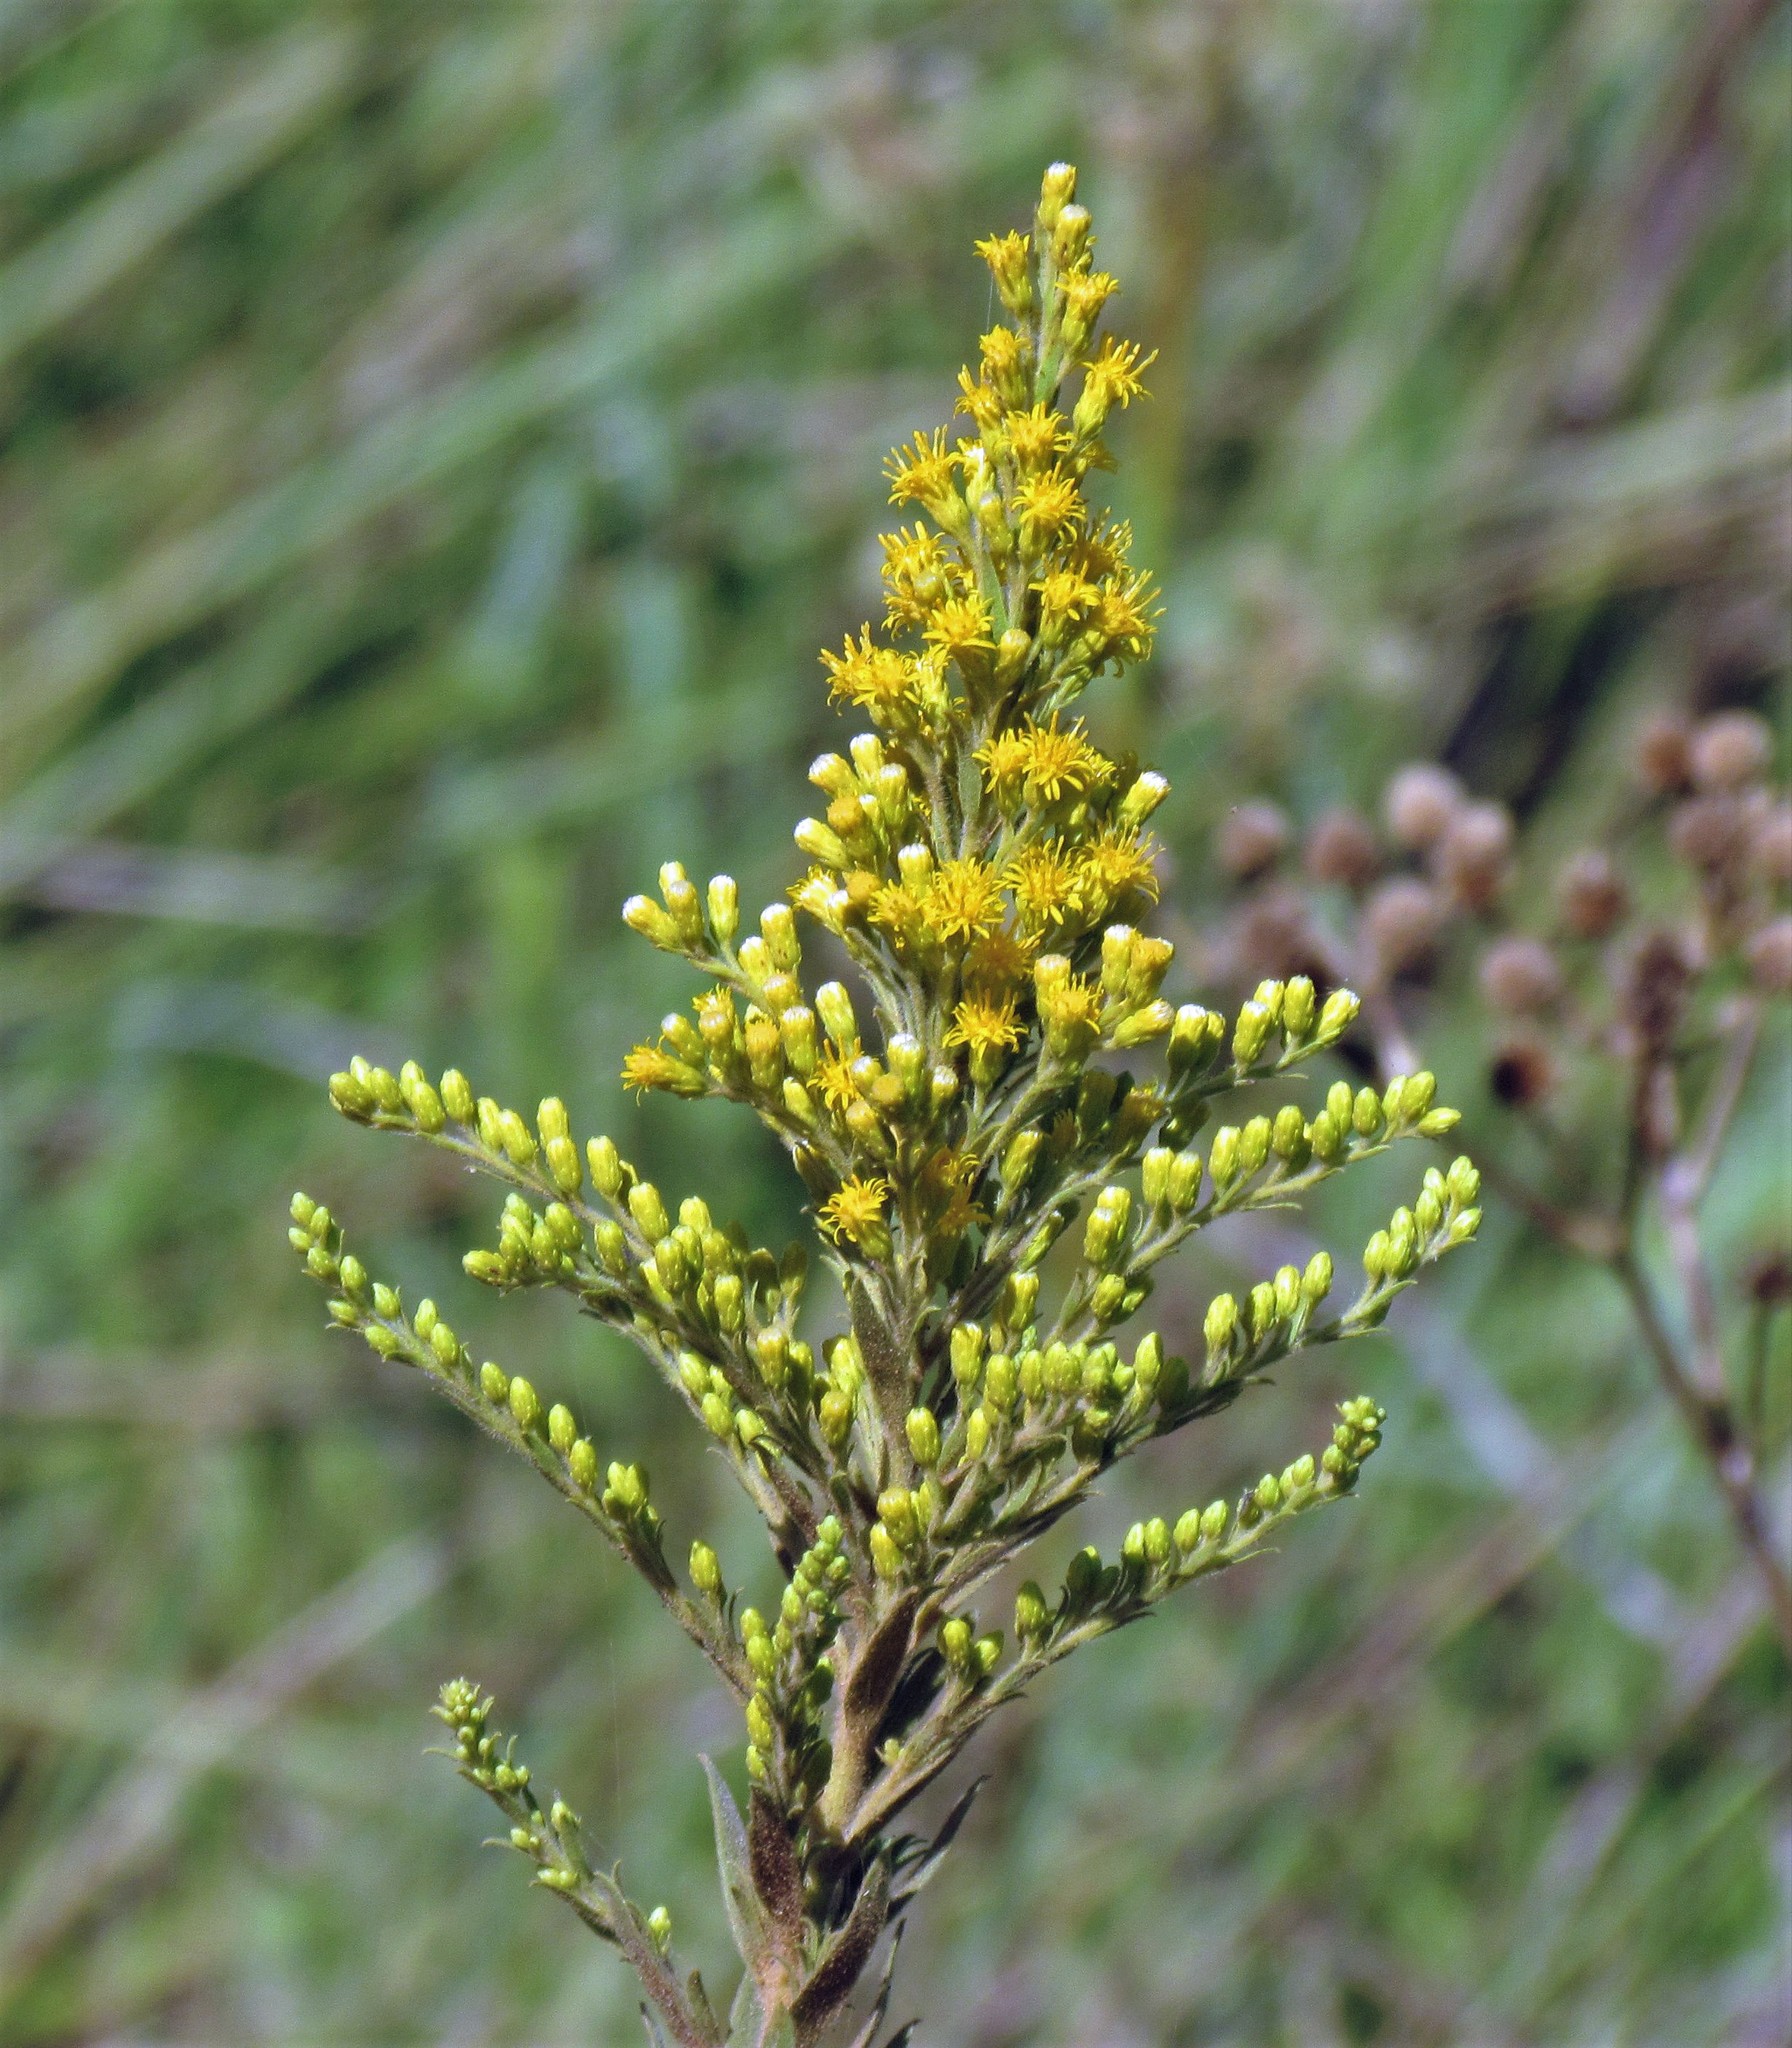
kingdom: Plantae
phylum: Tracheophyta
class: Magnoliopsida
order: Asterales
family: Asteraceae
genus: Solidago
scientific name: Solidago chilensis
